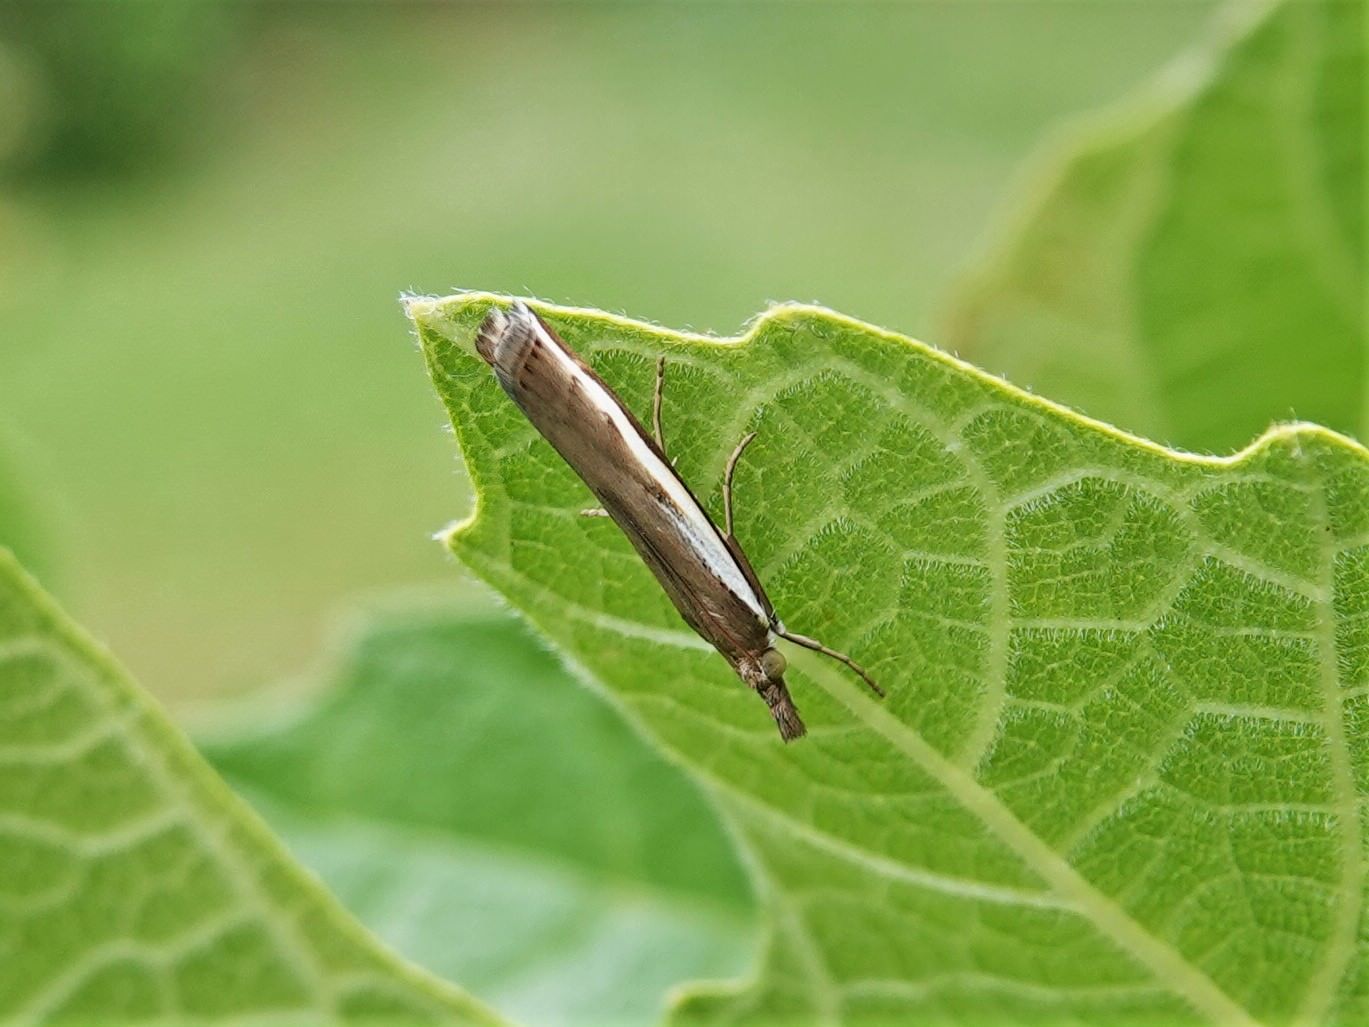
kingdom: Animalia
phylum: Arthropoda
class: Insecta
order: Lepidoptera
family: Crambidae
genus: Orocrambus
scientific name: Orocrambus flexuosellus
